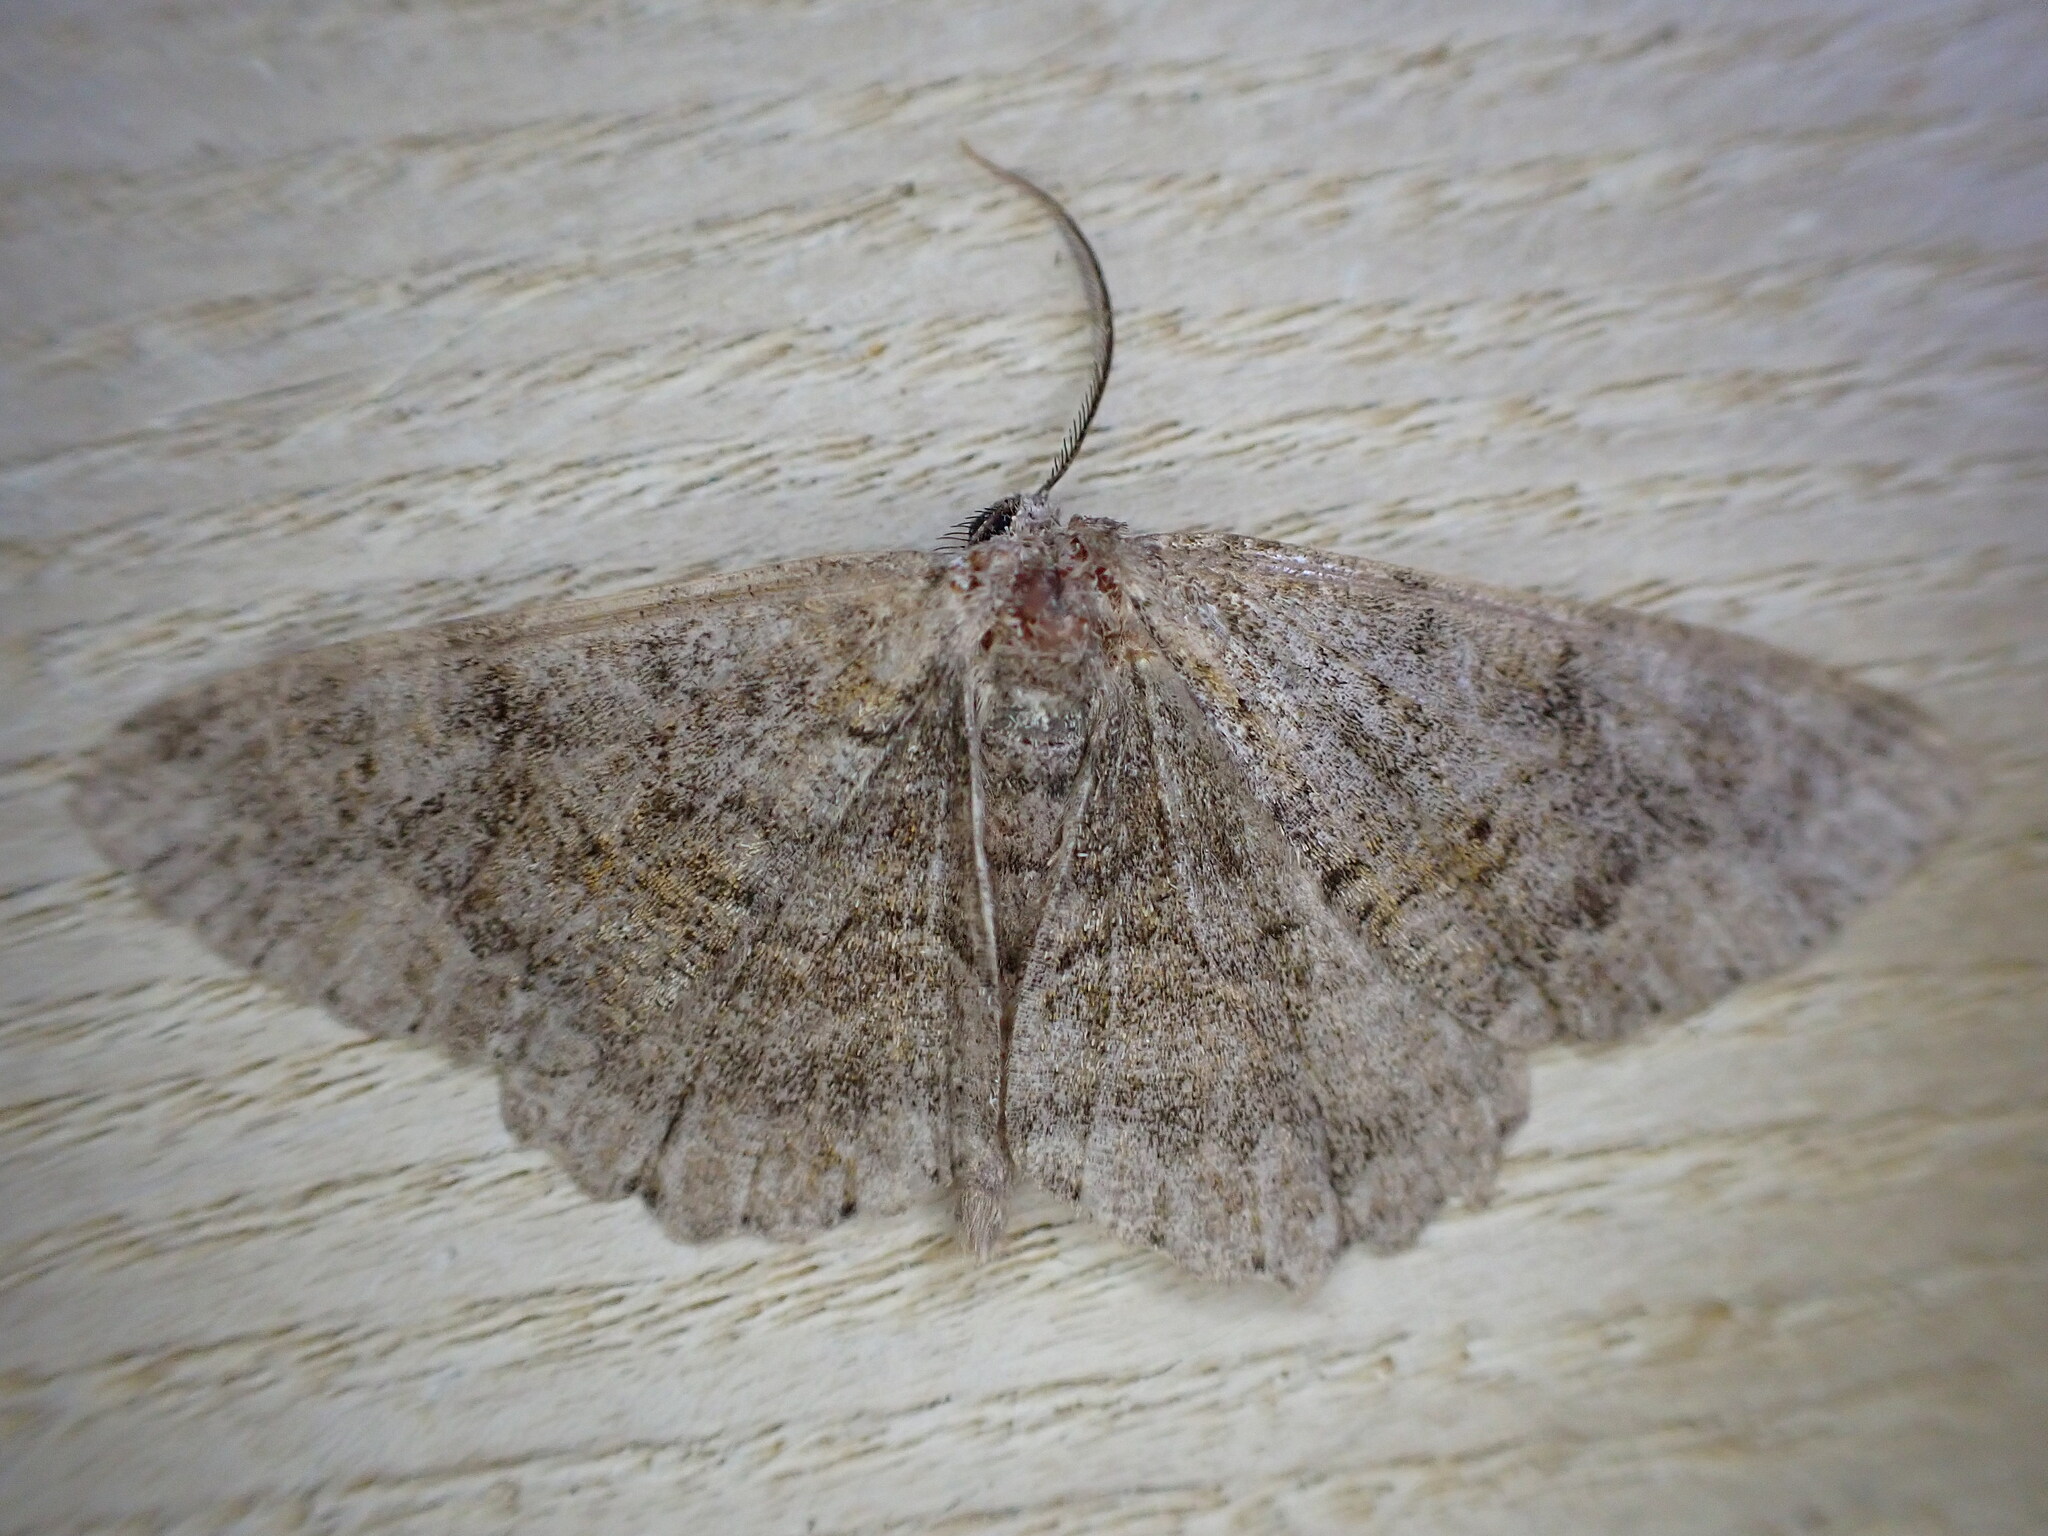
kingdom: Animalia
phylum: Arthropoda
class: Insecta
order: Lepidoptera
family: Geometridae
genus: Alcis
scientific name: Alcis repandata
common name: Mottled beauty
